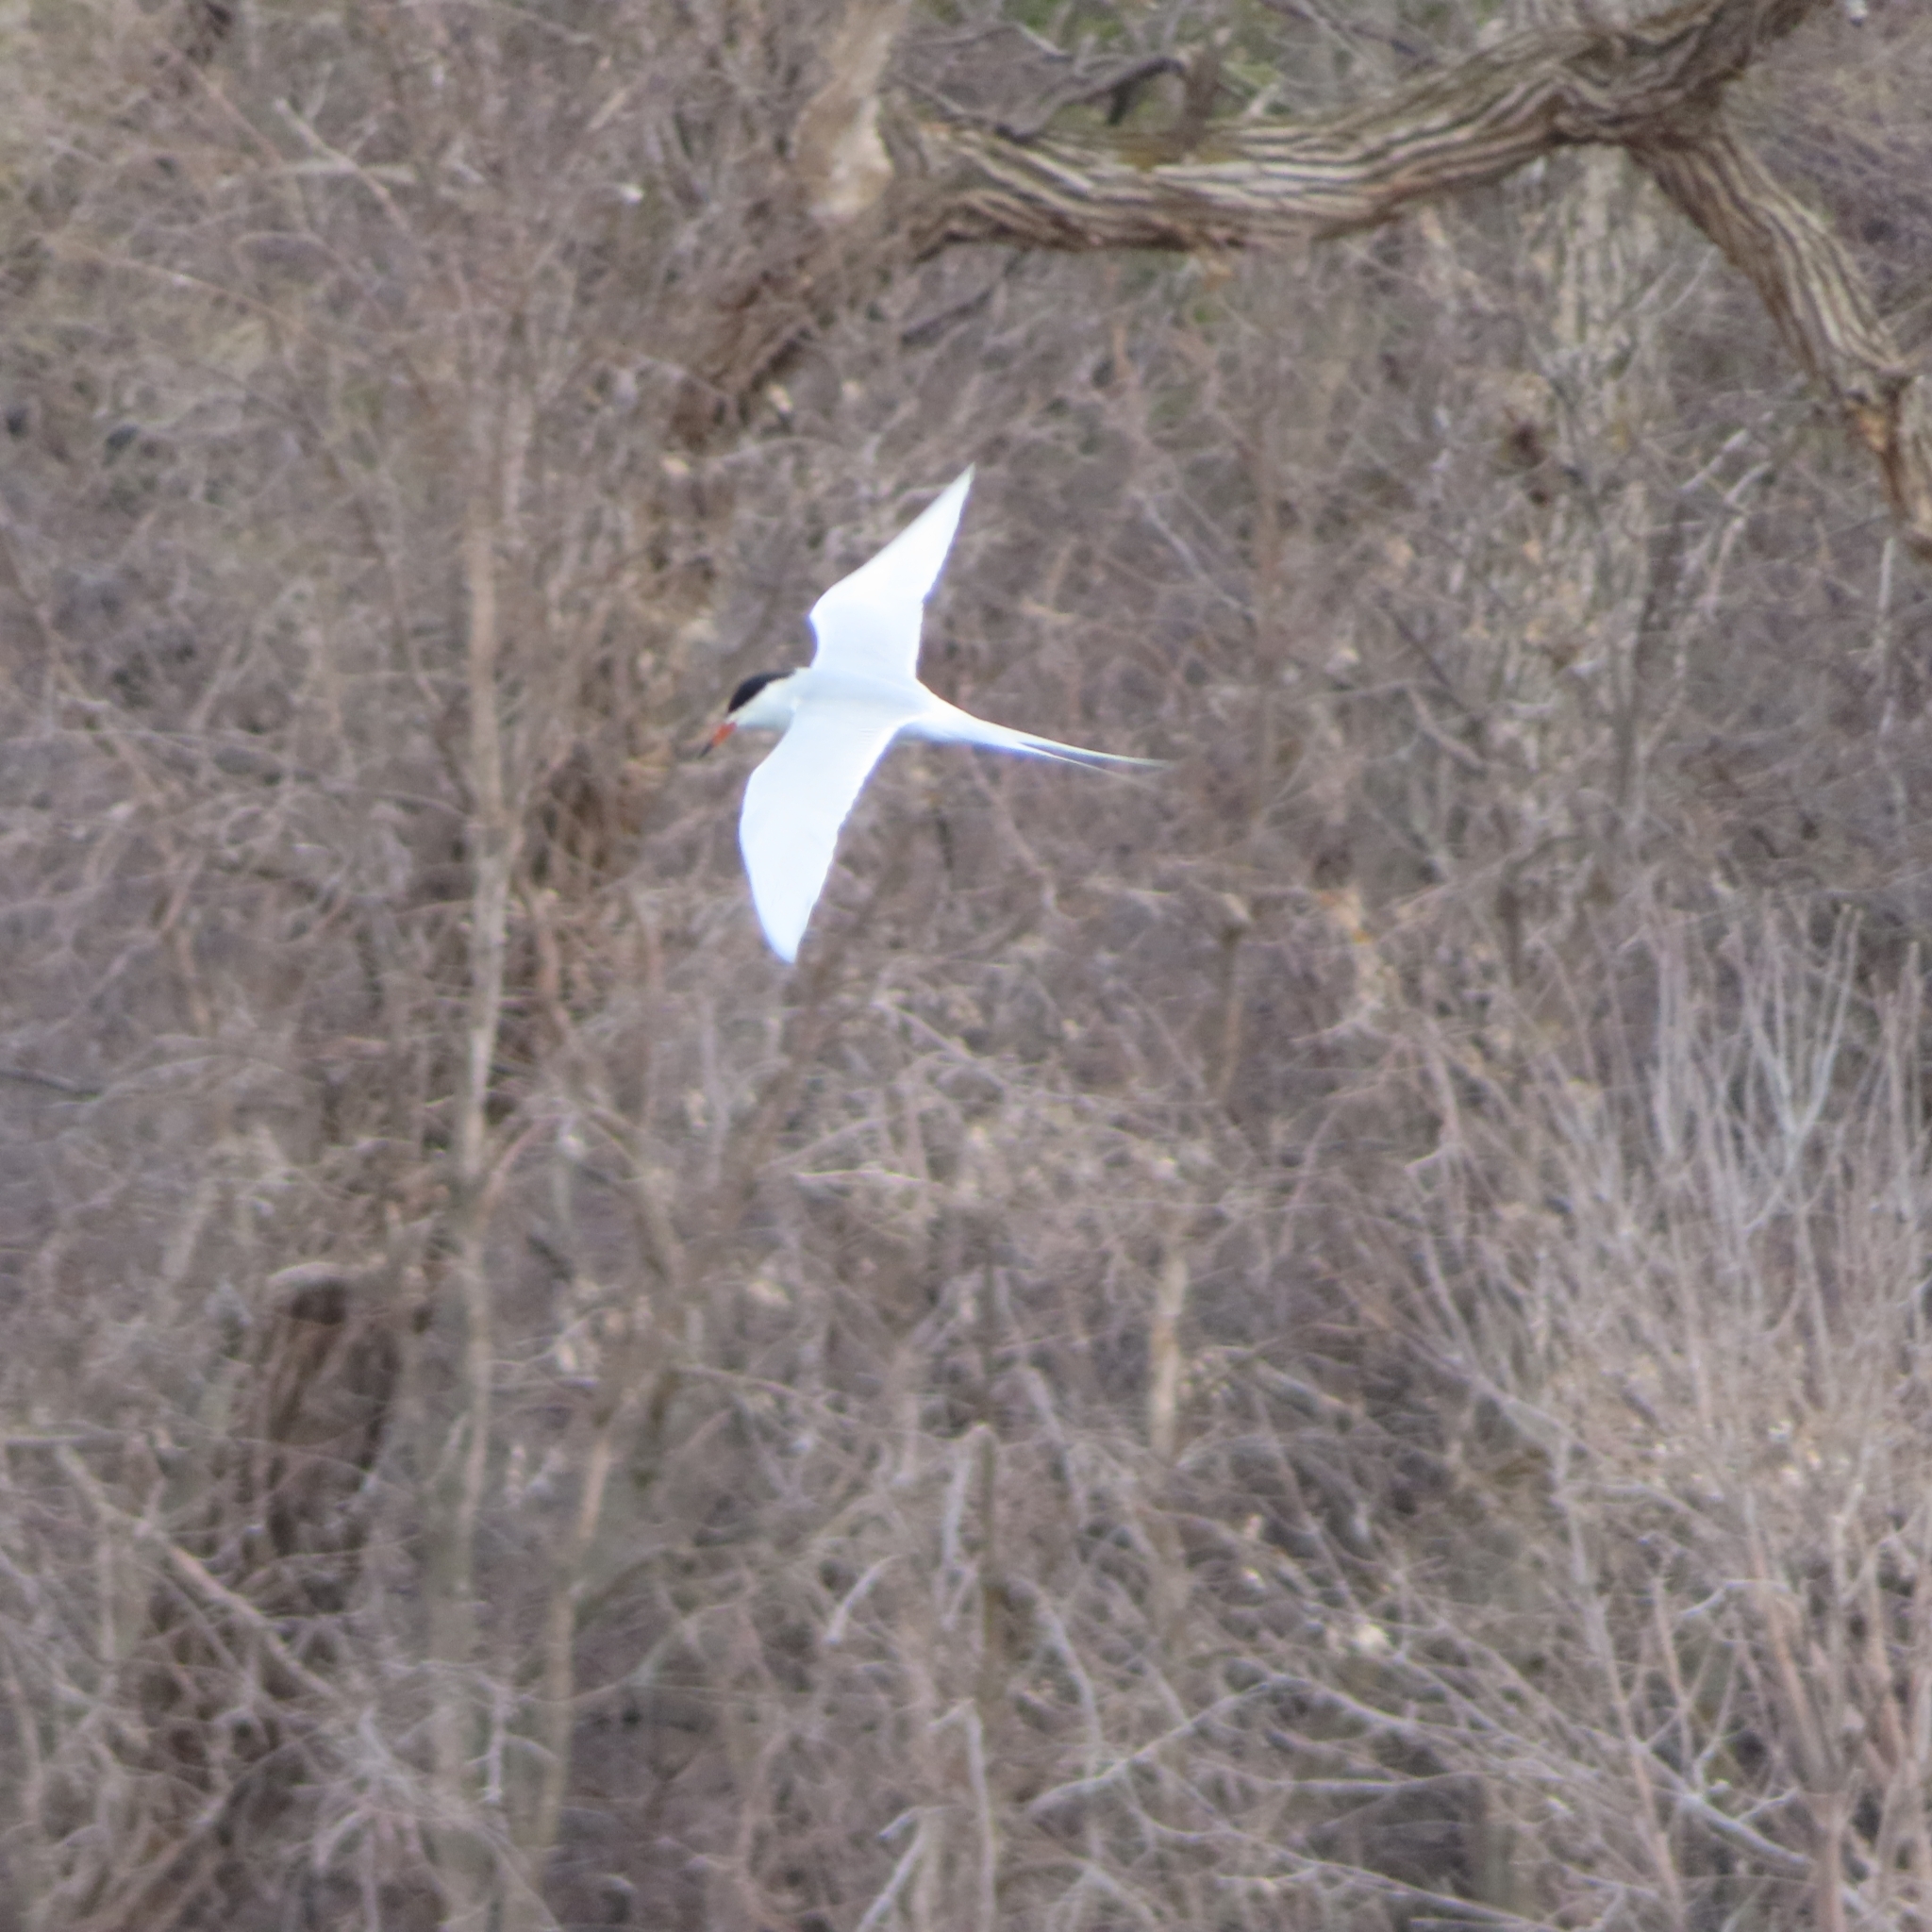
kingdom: Animalia
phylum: Chordata
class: Aves
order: Charadriiformes
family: Laridae
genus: Sterna
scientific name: Sterna forsteri
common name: Forster's tern
